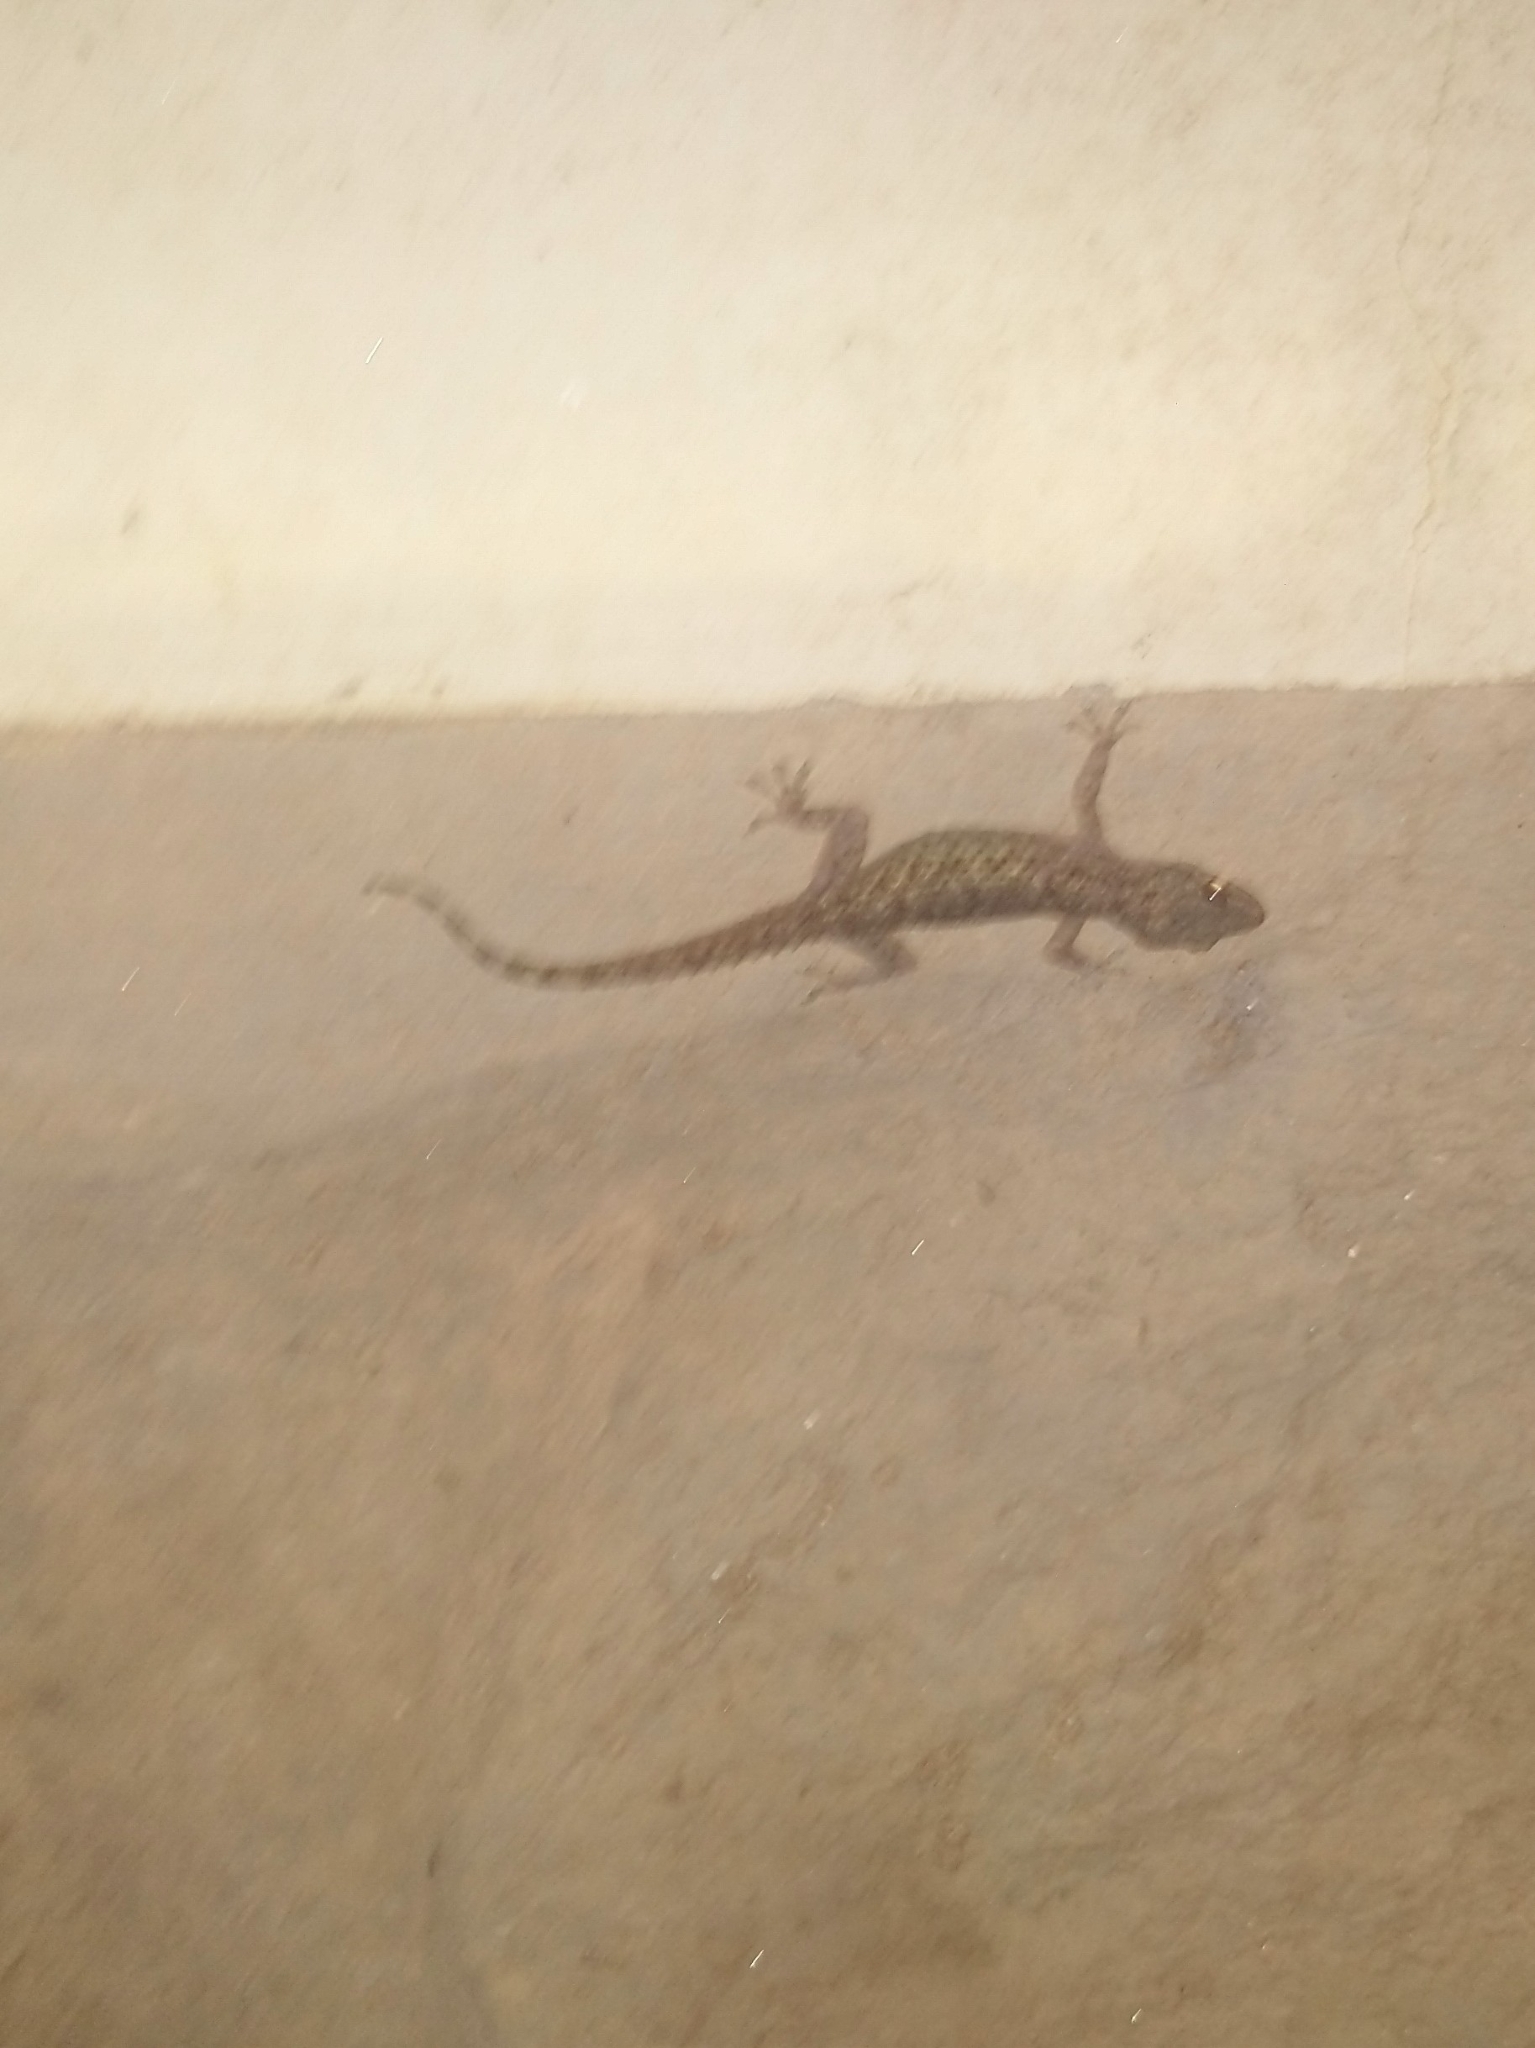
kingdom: Animalia
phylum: Chordata
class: Squamata
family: Gekkonidae
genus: Hemidactylus
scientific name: Hemidactylus frenatus
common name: Common house gecko
